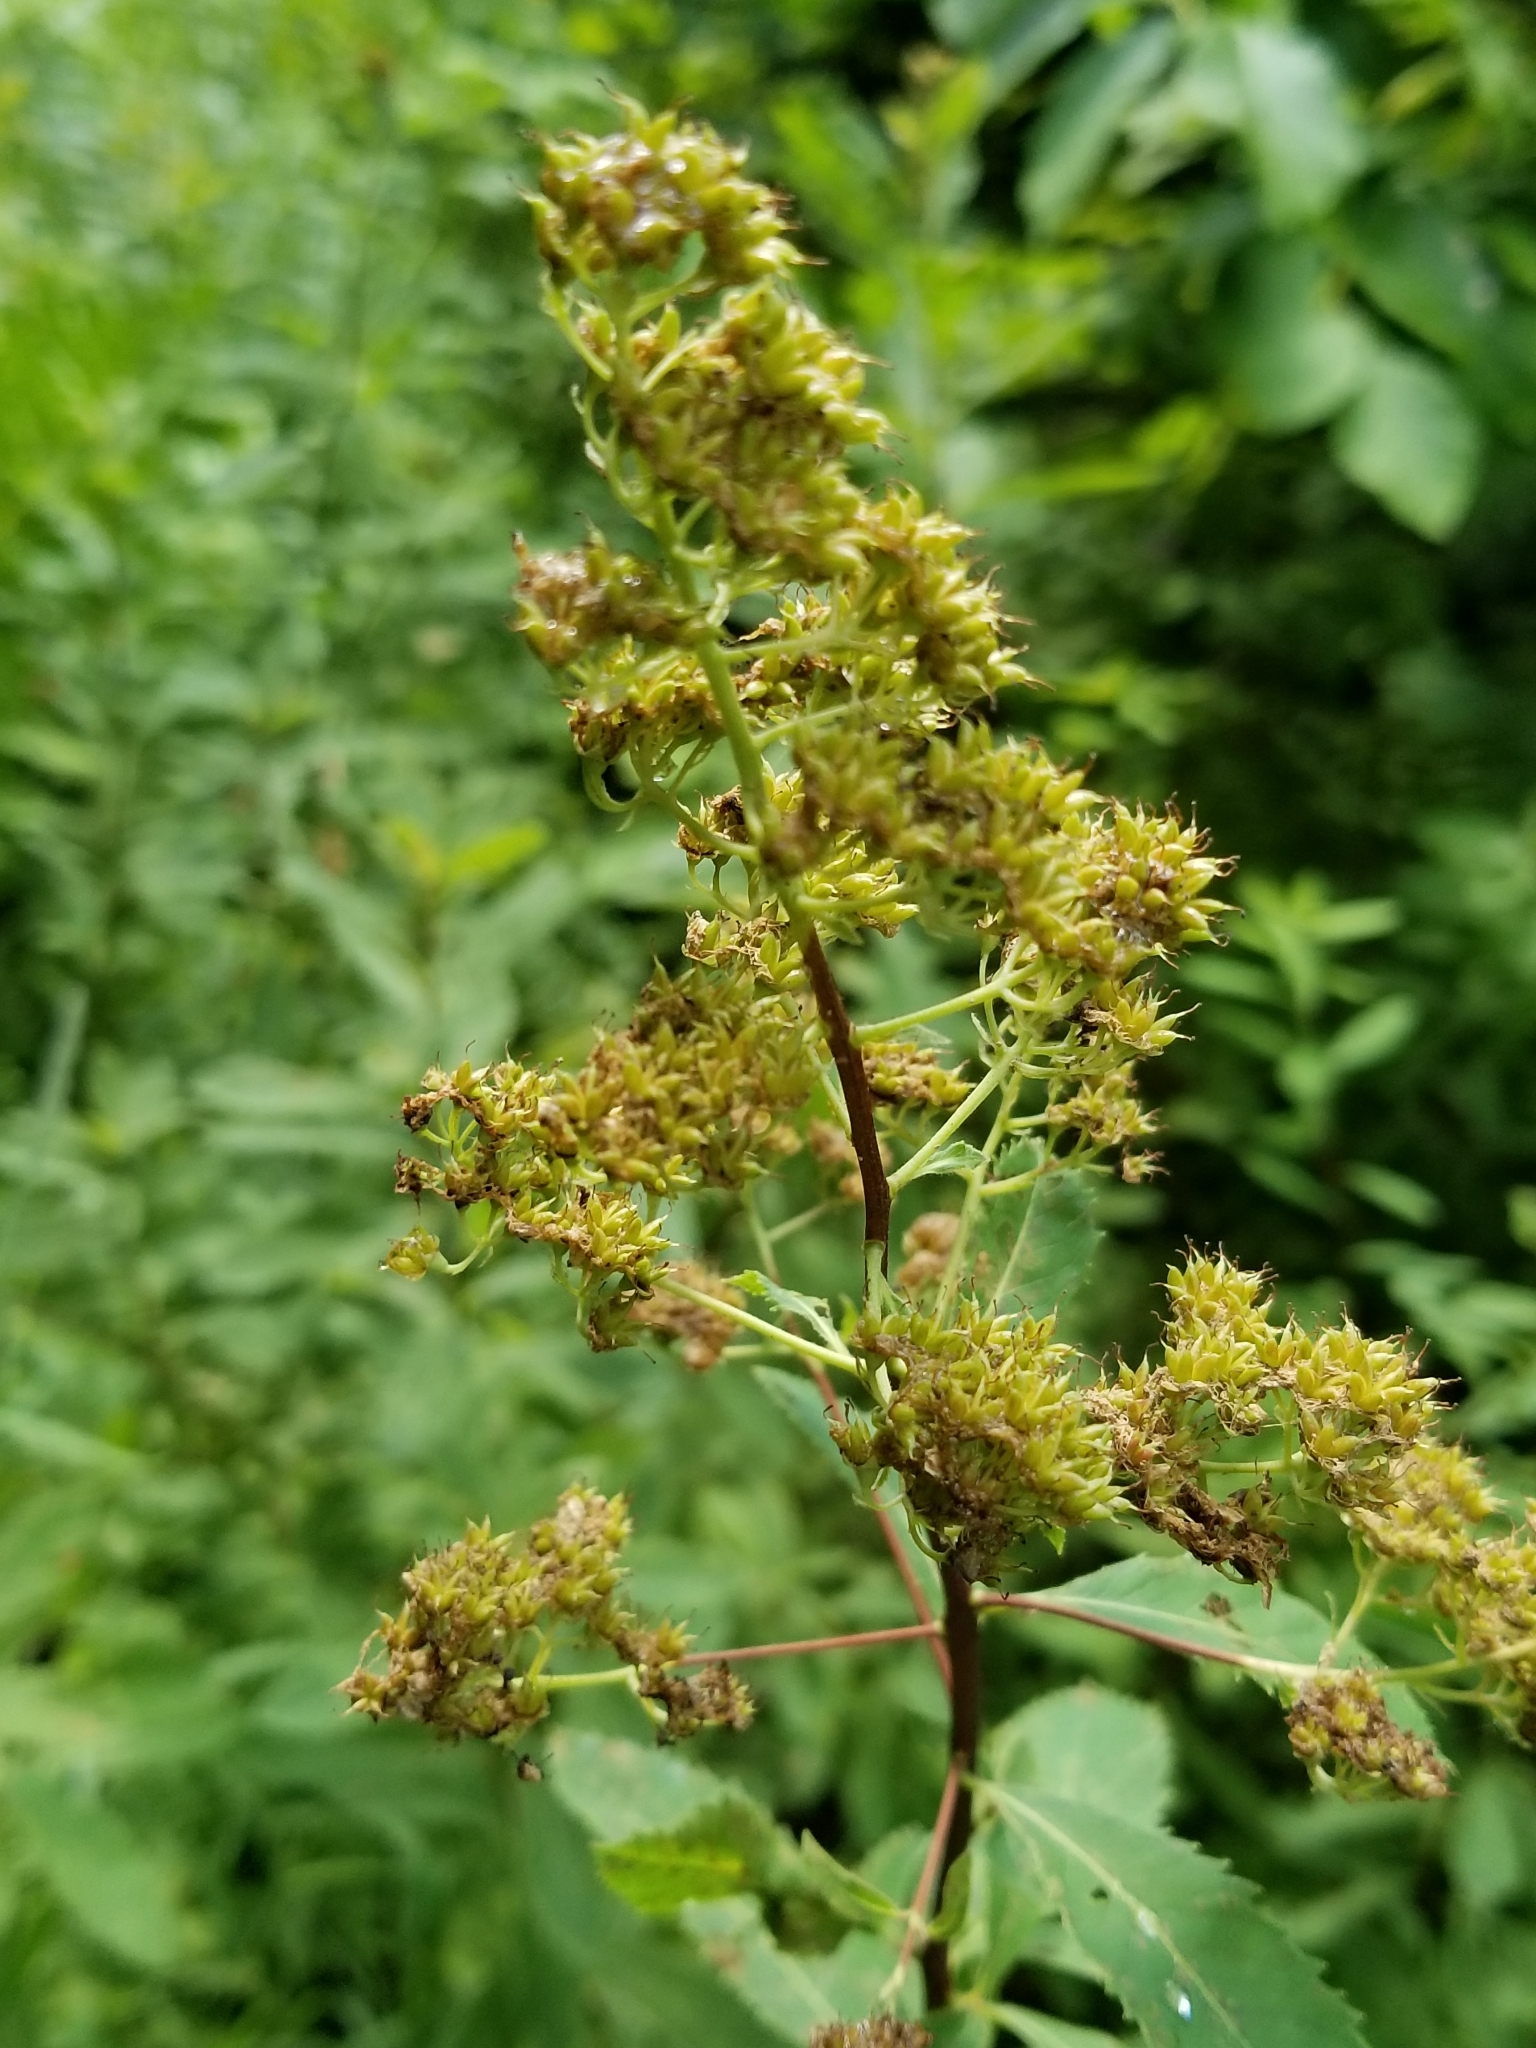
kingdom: Plantae
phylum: Tracheophyta
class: Magnoliopsida
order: Rosales
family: Rosaceae
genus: Spiraea
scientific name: Spiraea alba
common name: Pale bridewort
